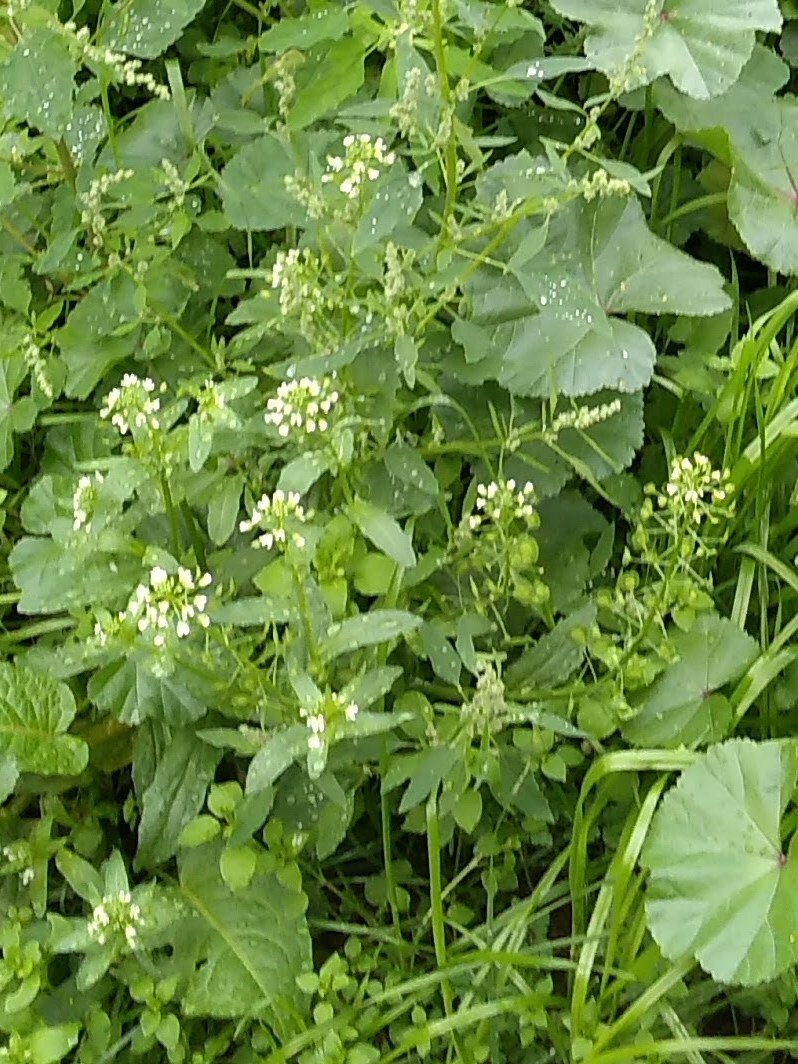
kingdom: Plantae
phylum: Tracheophyta
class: Magnoliopsida
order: Brassicales
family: Brassicaceae
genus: Thlaspi
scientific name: Thlaspi arvense
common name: Field pennycress
